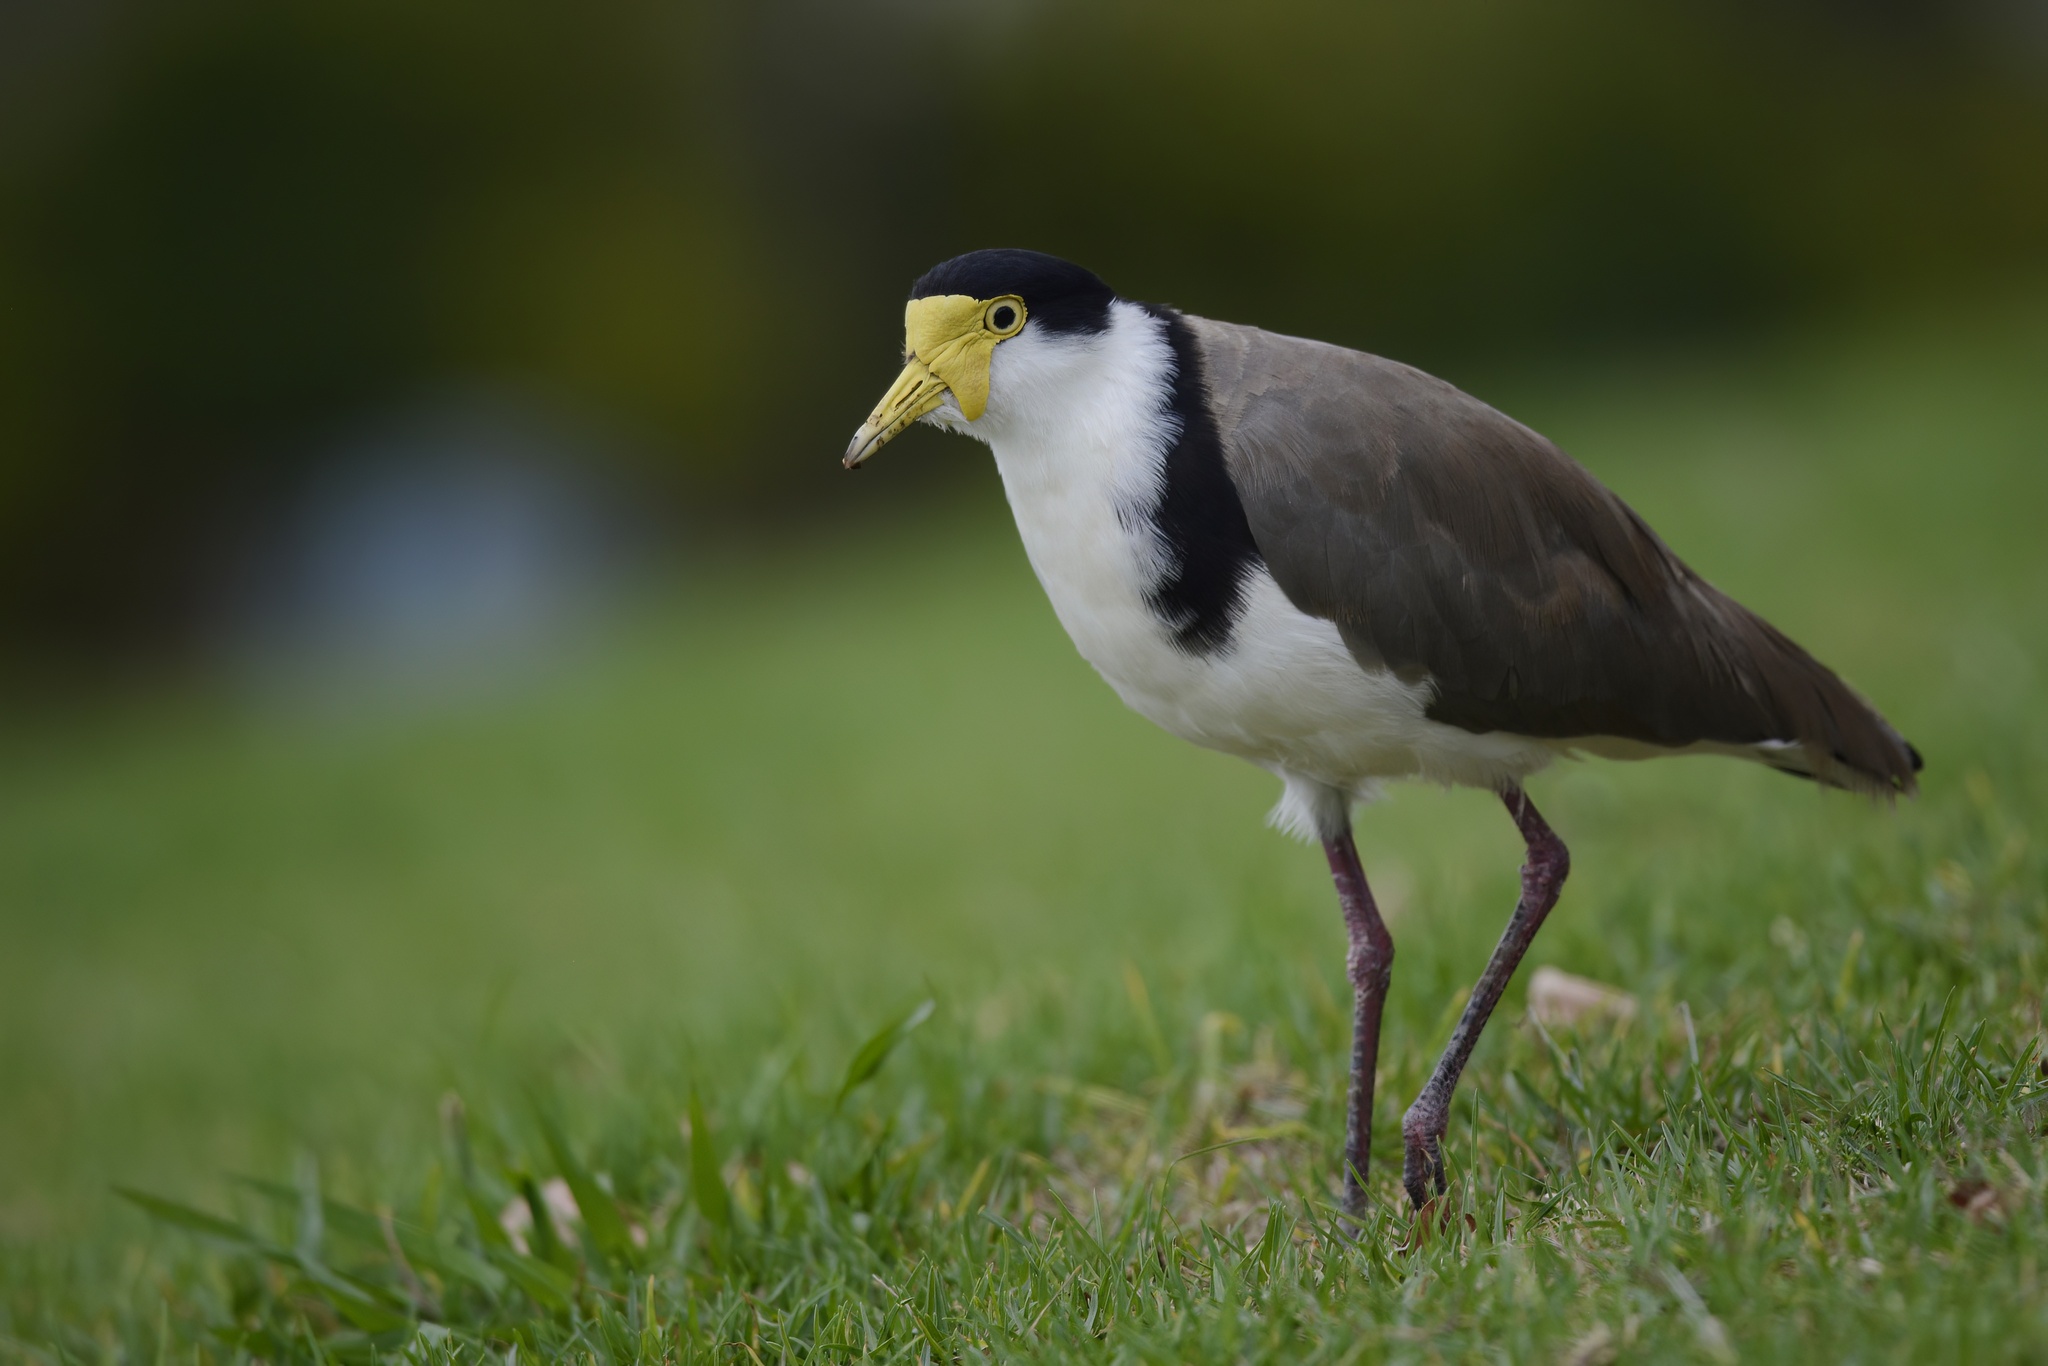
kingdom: Animalia
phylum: Chordata
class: Aves
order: Charadriiformes
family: Charadriidae
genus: Vanellus
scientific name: Vanellus miles
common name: Masked lapwing
